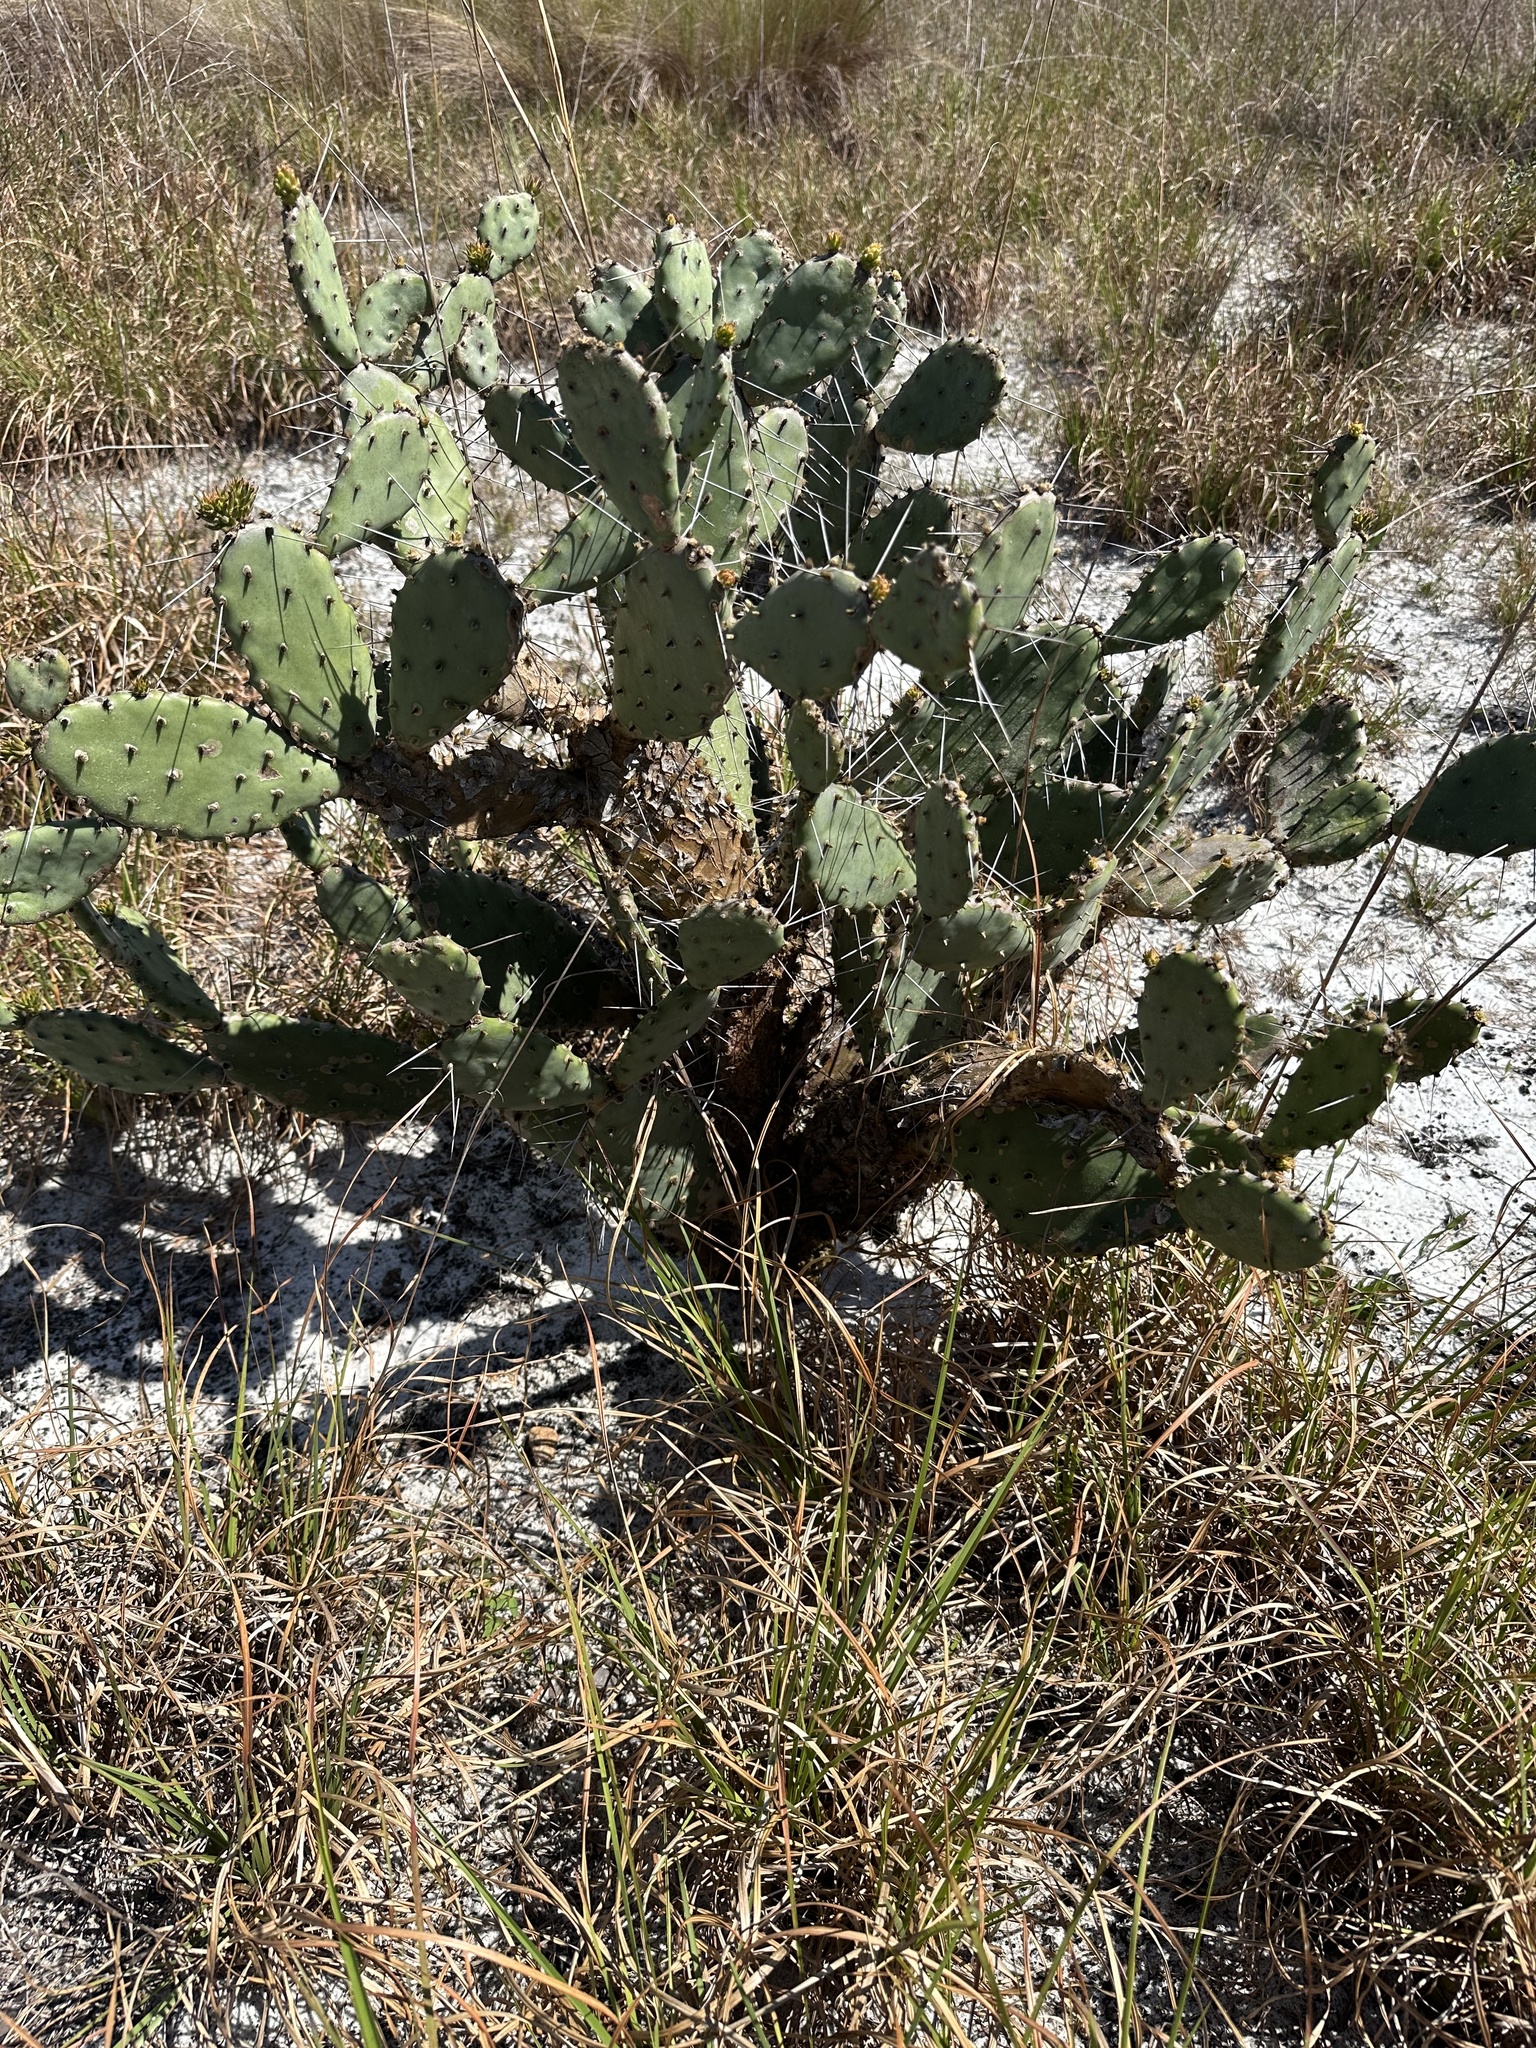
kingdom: Plantae
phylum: Tracheophyta
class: Magnoliopsida
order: Caryophyllales
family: Cactaceae
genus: Opuntia
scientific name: Opuntia austrina
